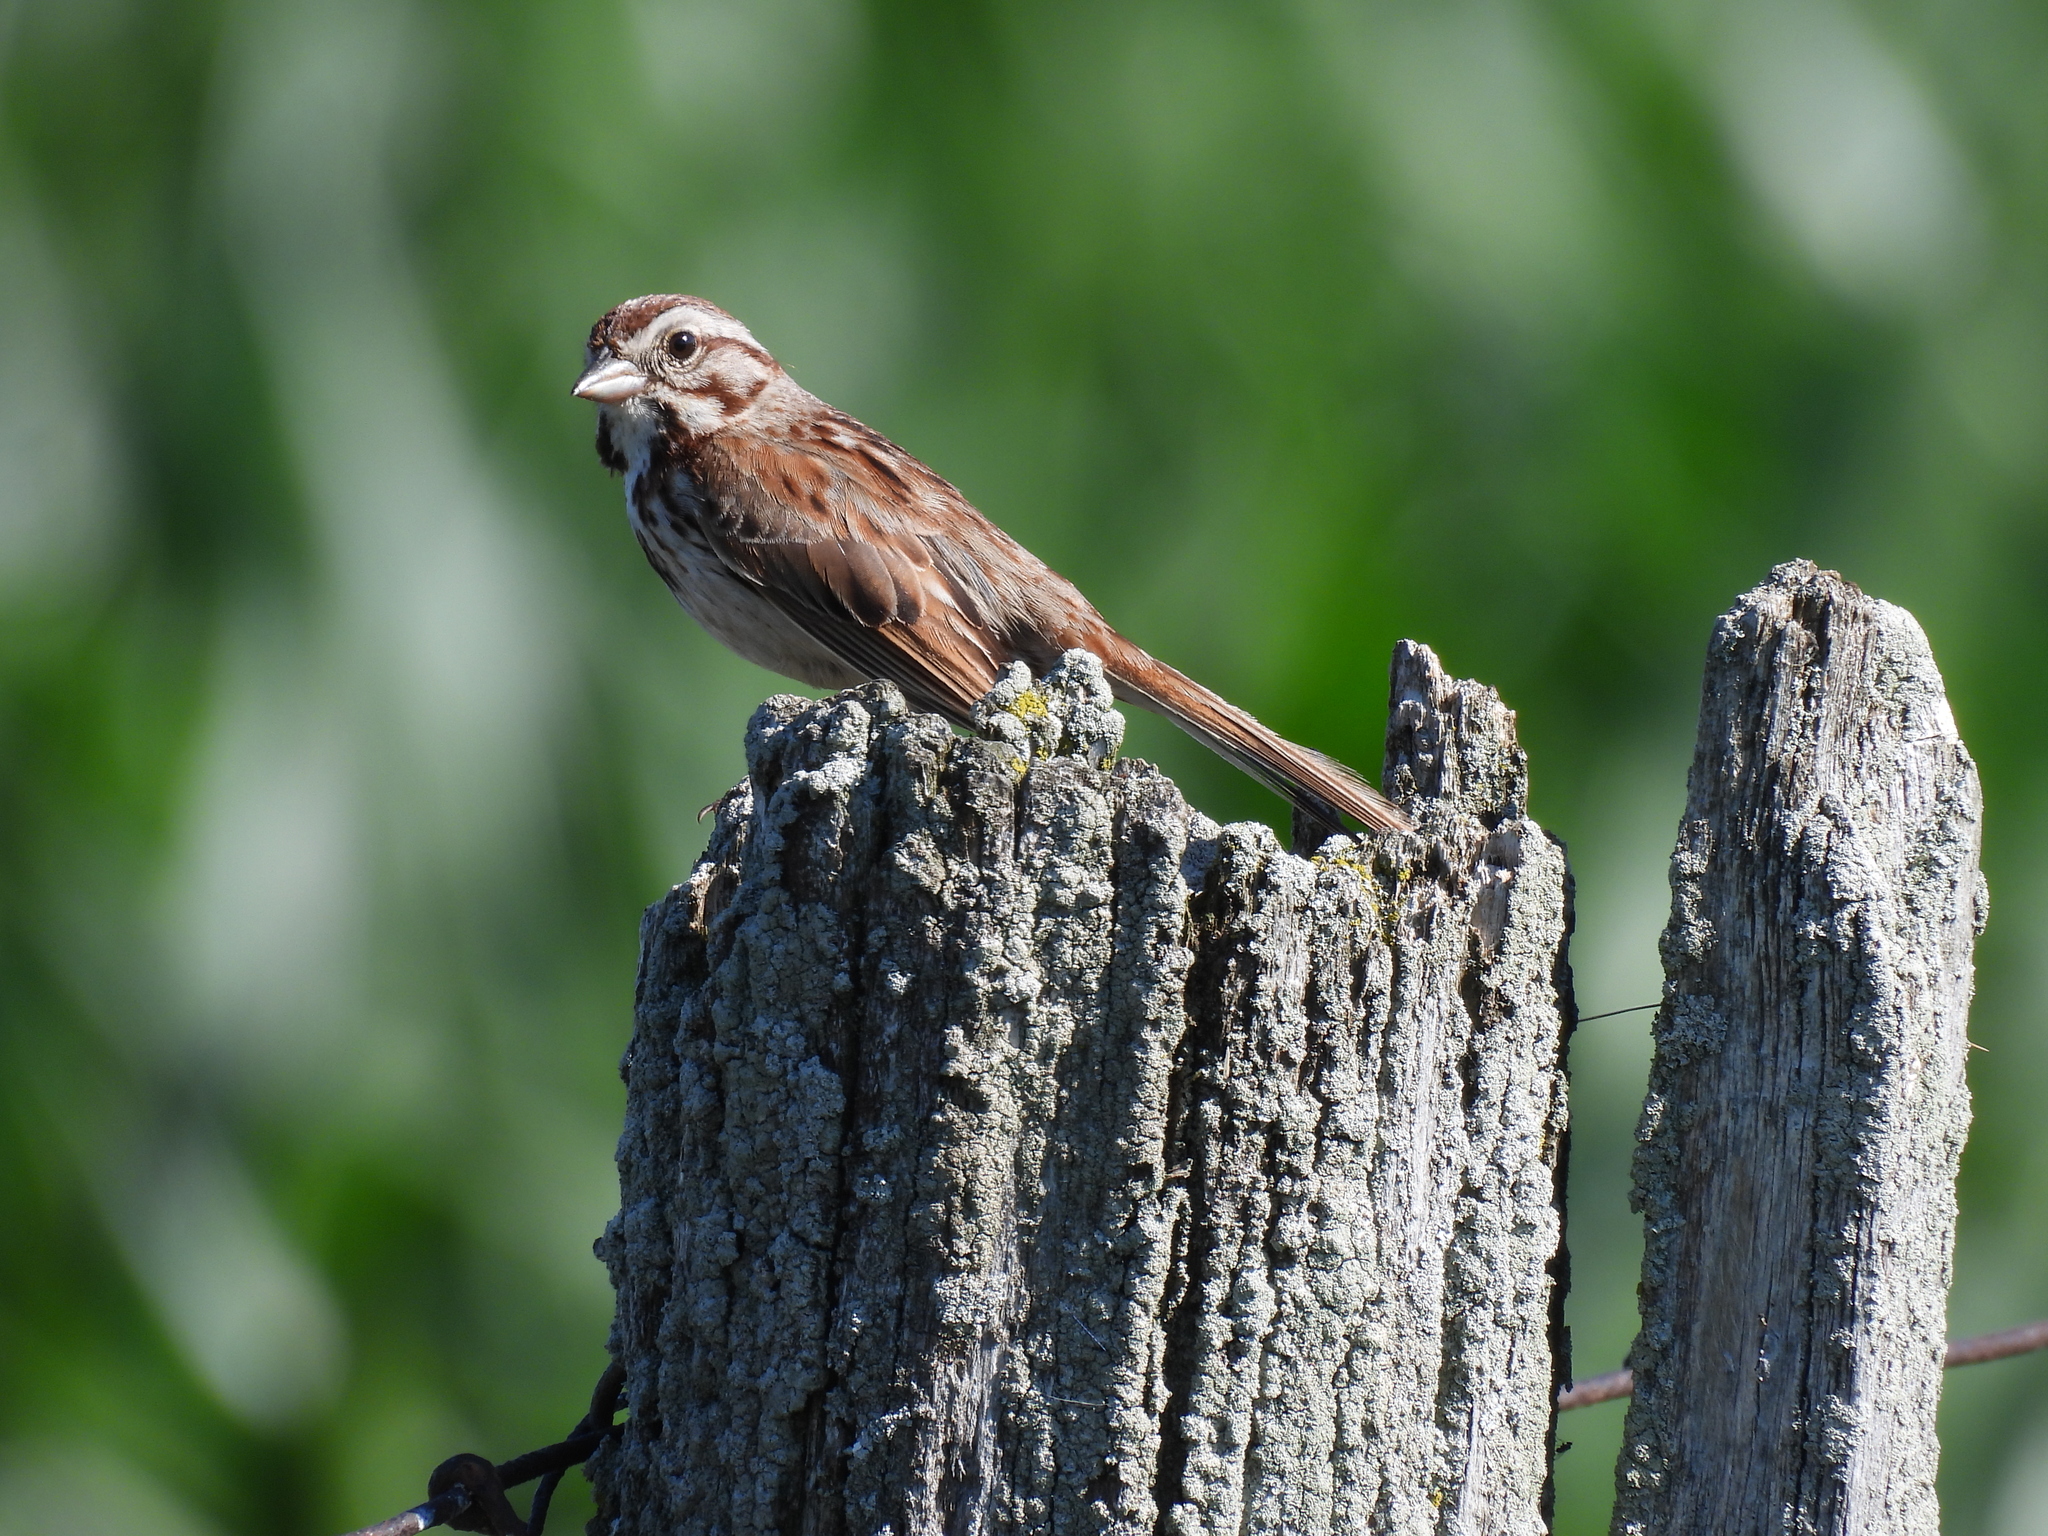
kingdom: Animalia
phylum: Chordata
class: Aves
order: Passeriformes
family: Passerellidae
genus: Melospiza
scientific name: Melospiza melodia
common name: Song sparrow
